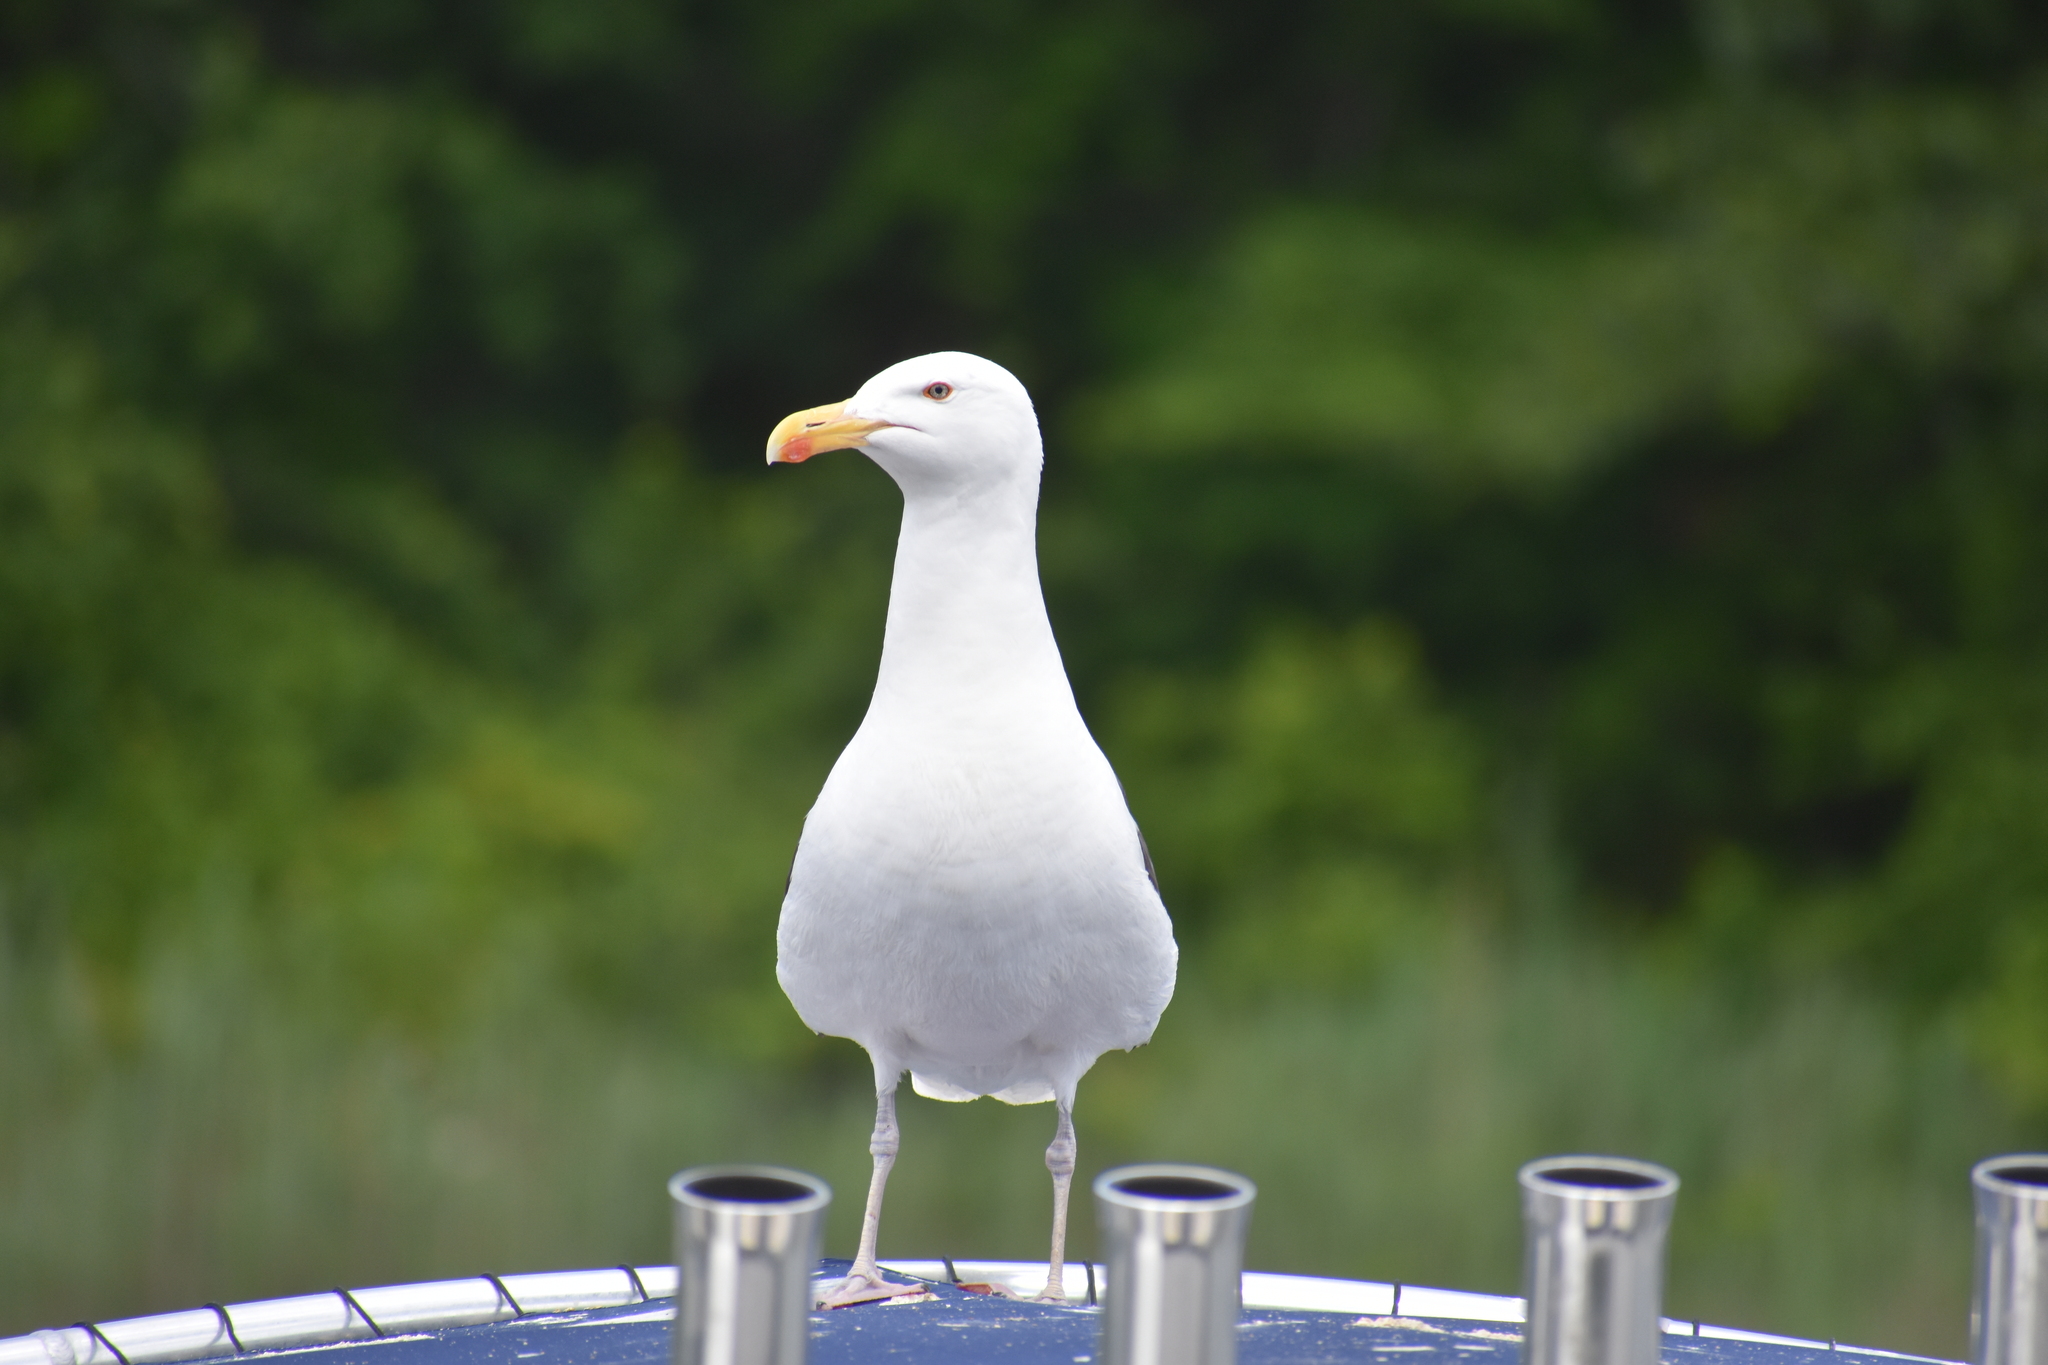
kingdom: Animalia
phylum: Chordata
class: Aves
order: Charadriiformes
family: Laridae
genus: Larus
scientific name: Larus marinus
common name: Great black-backed gull
